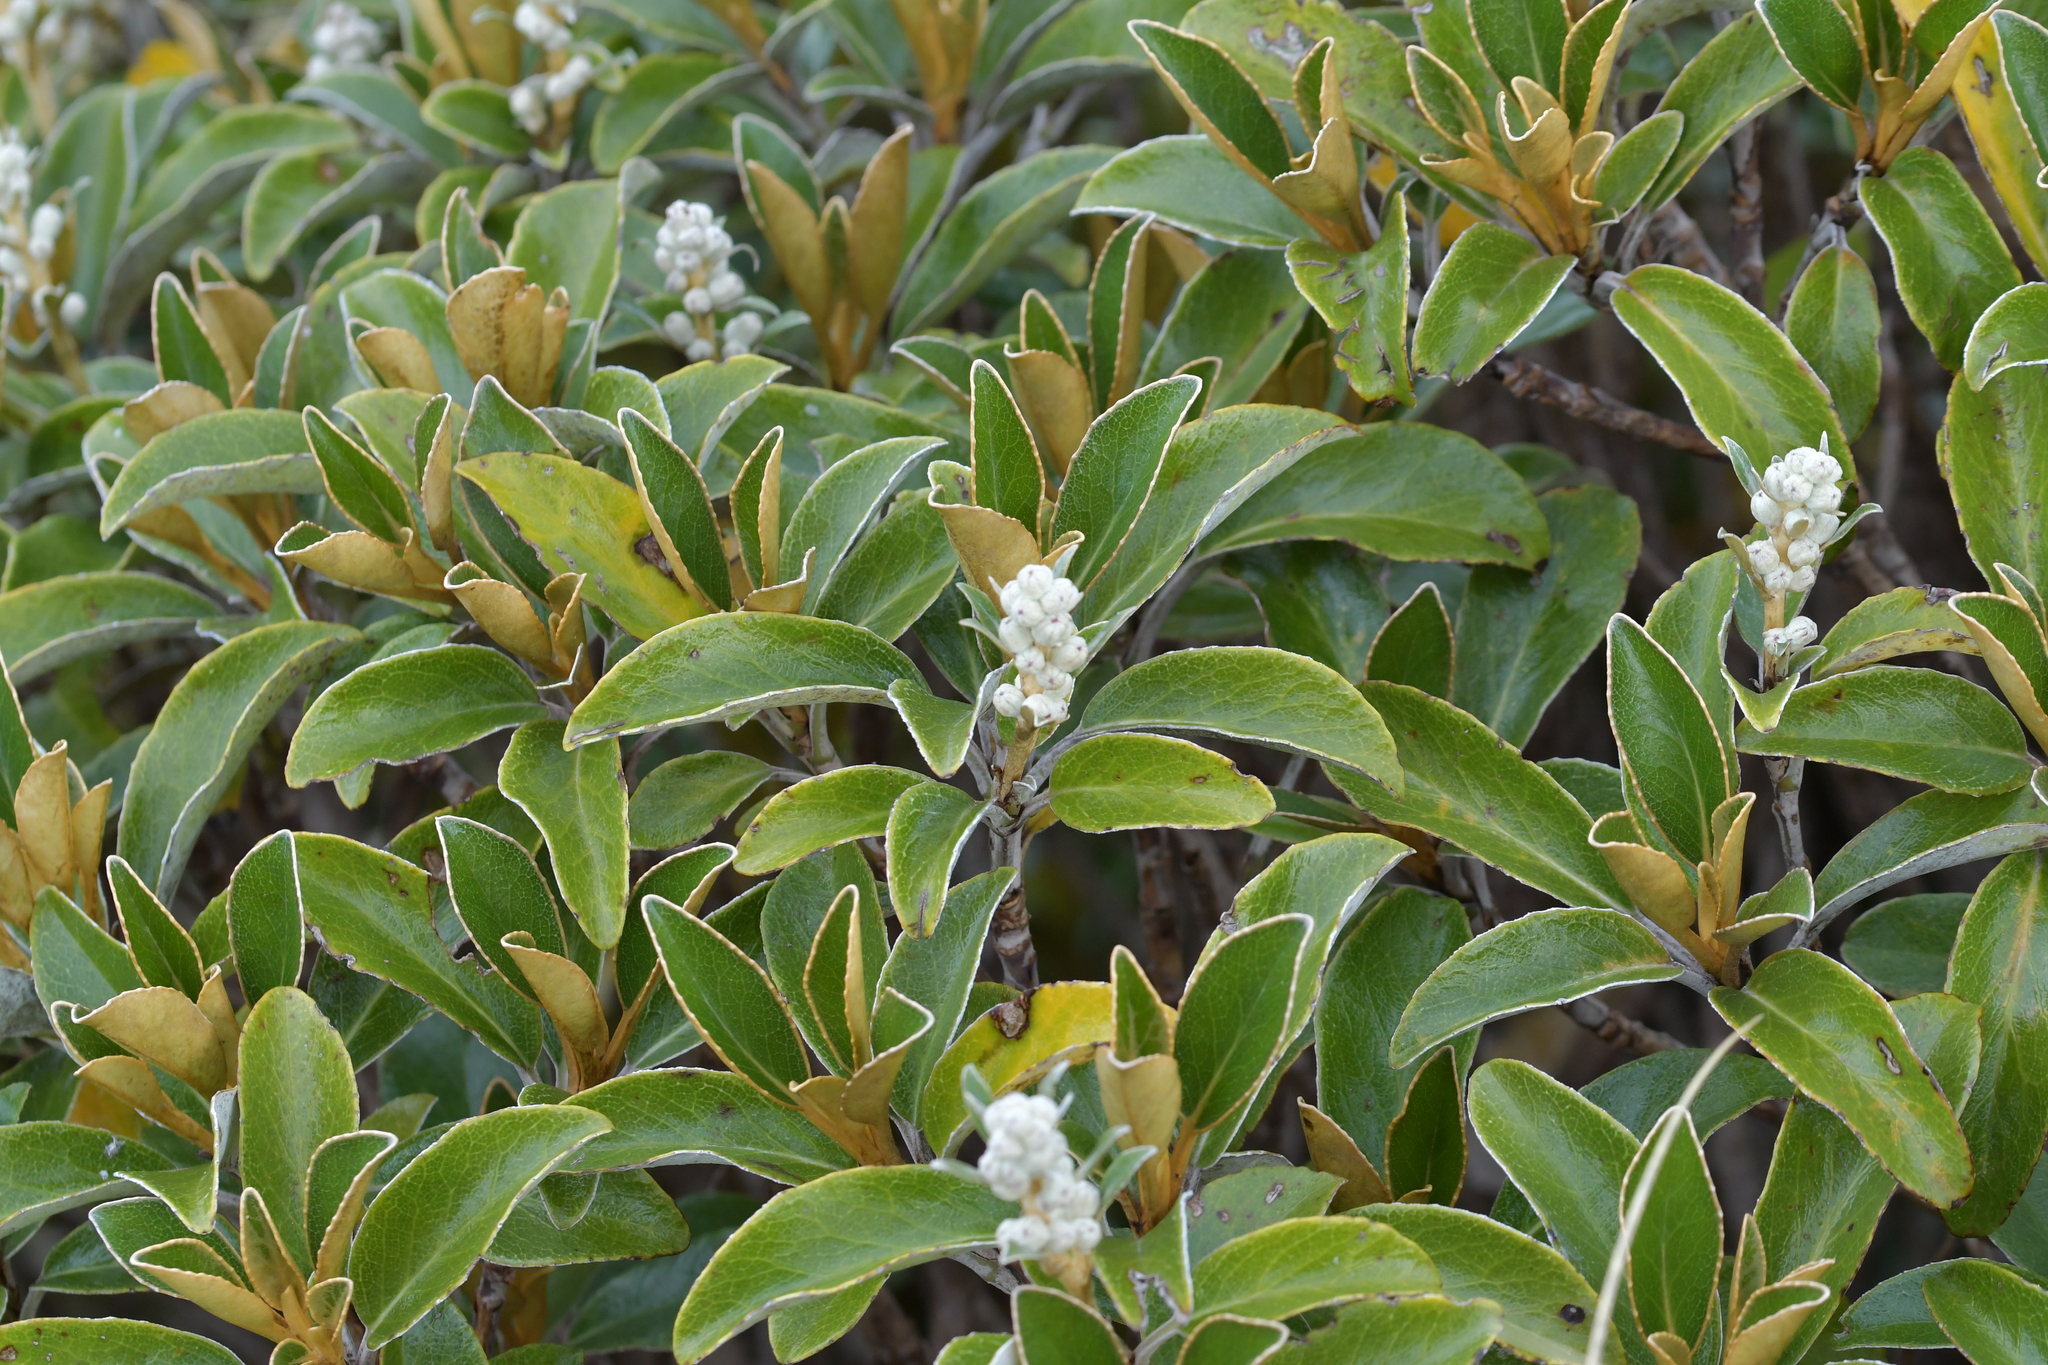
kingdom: Plantae
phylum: Tracheophyta
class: Magnoliopsida
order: Asterales
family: Asteraceae
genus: Brachyglottis
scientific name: Brachyglottis elaeagnifolia
